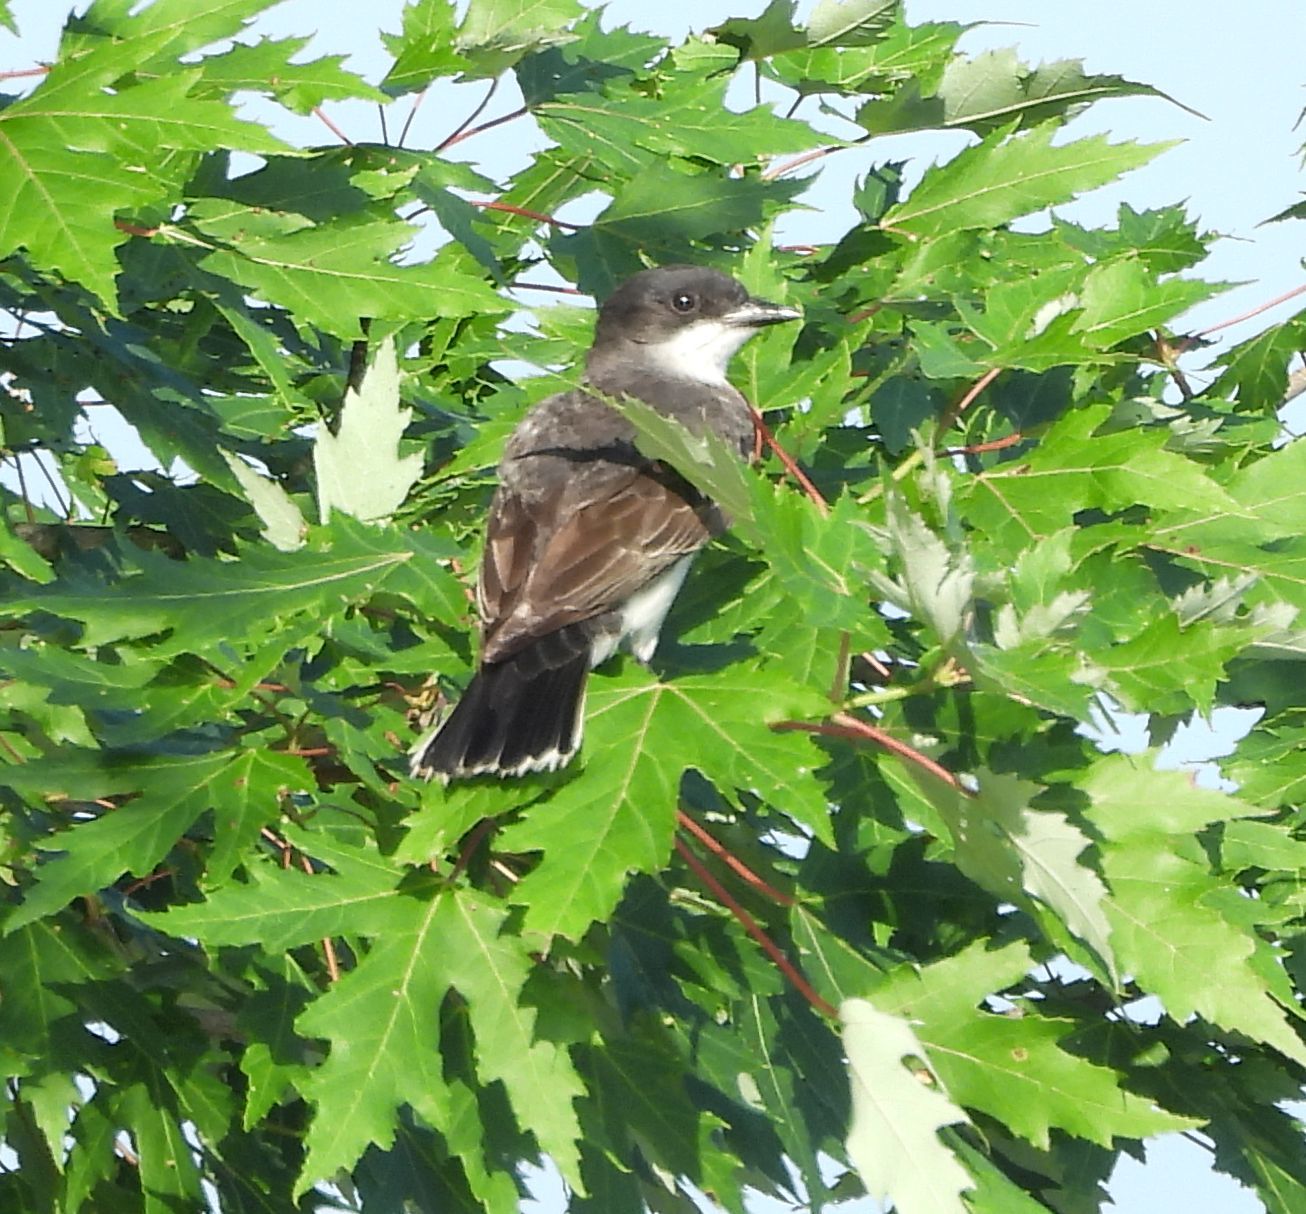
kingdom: Animalia
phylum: Chordata
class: Aves
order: Passeriformes
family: Tyrannidae
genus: Tyrannus
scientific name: Tyrannus tyrannus
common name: Eastern kingbird
